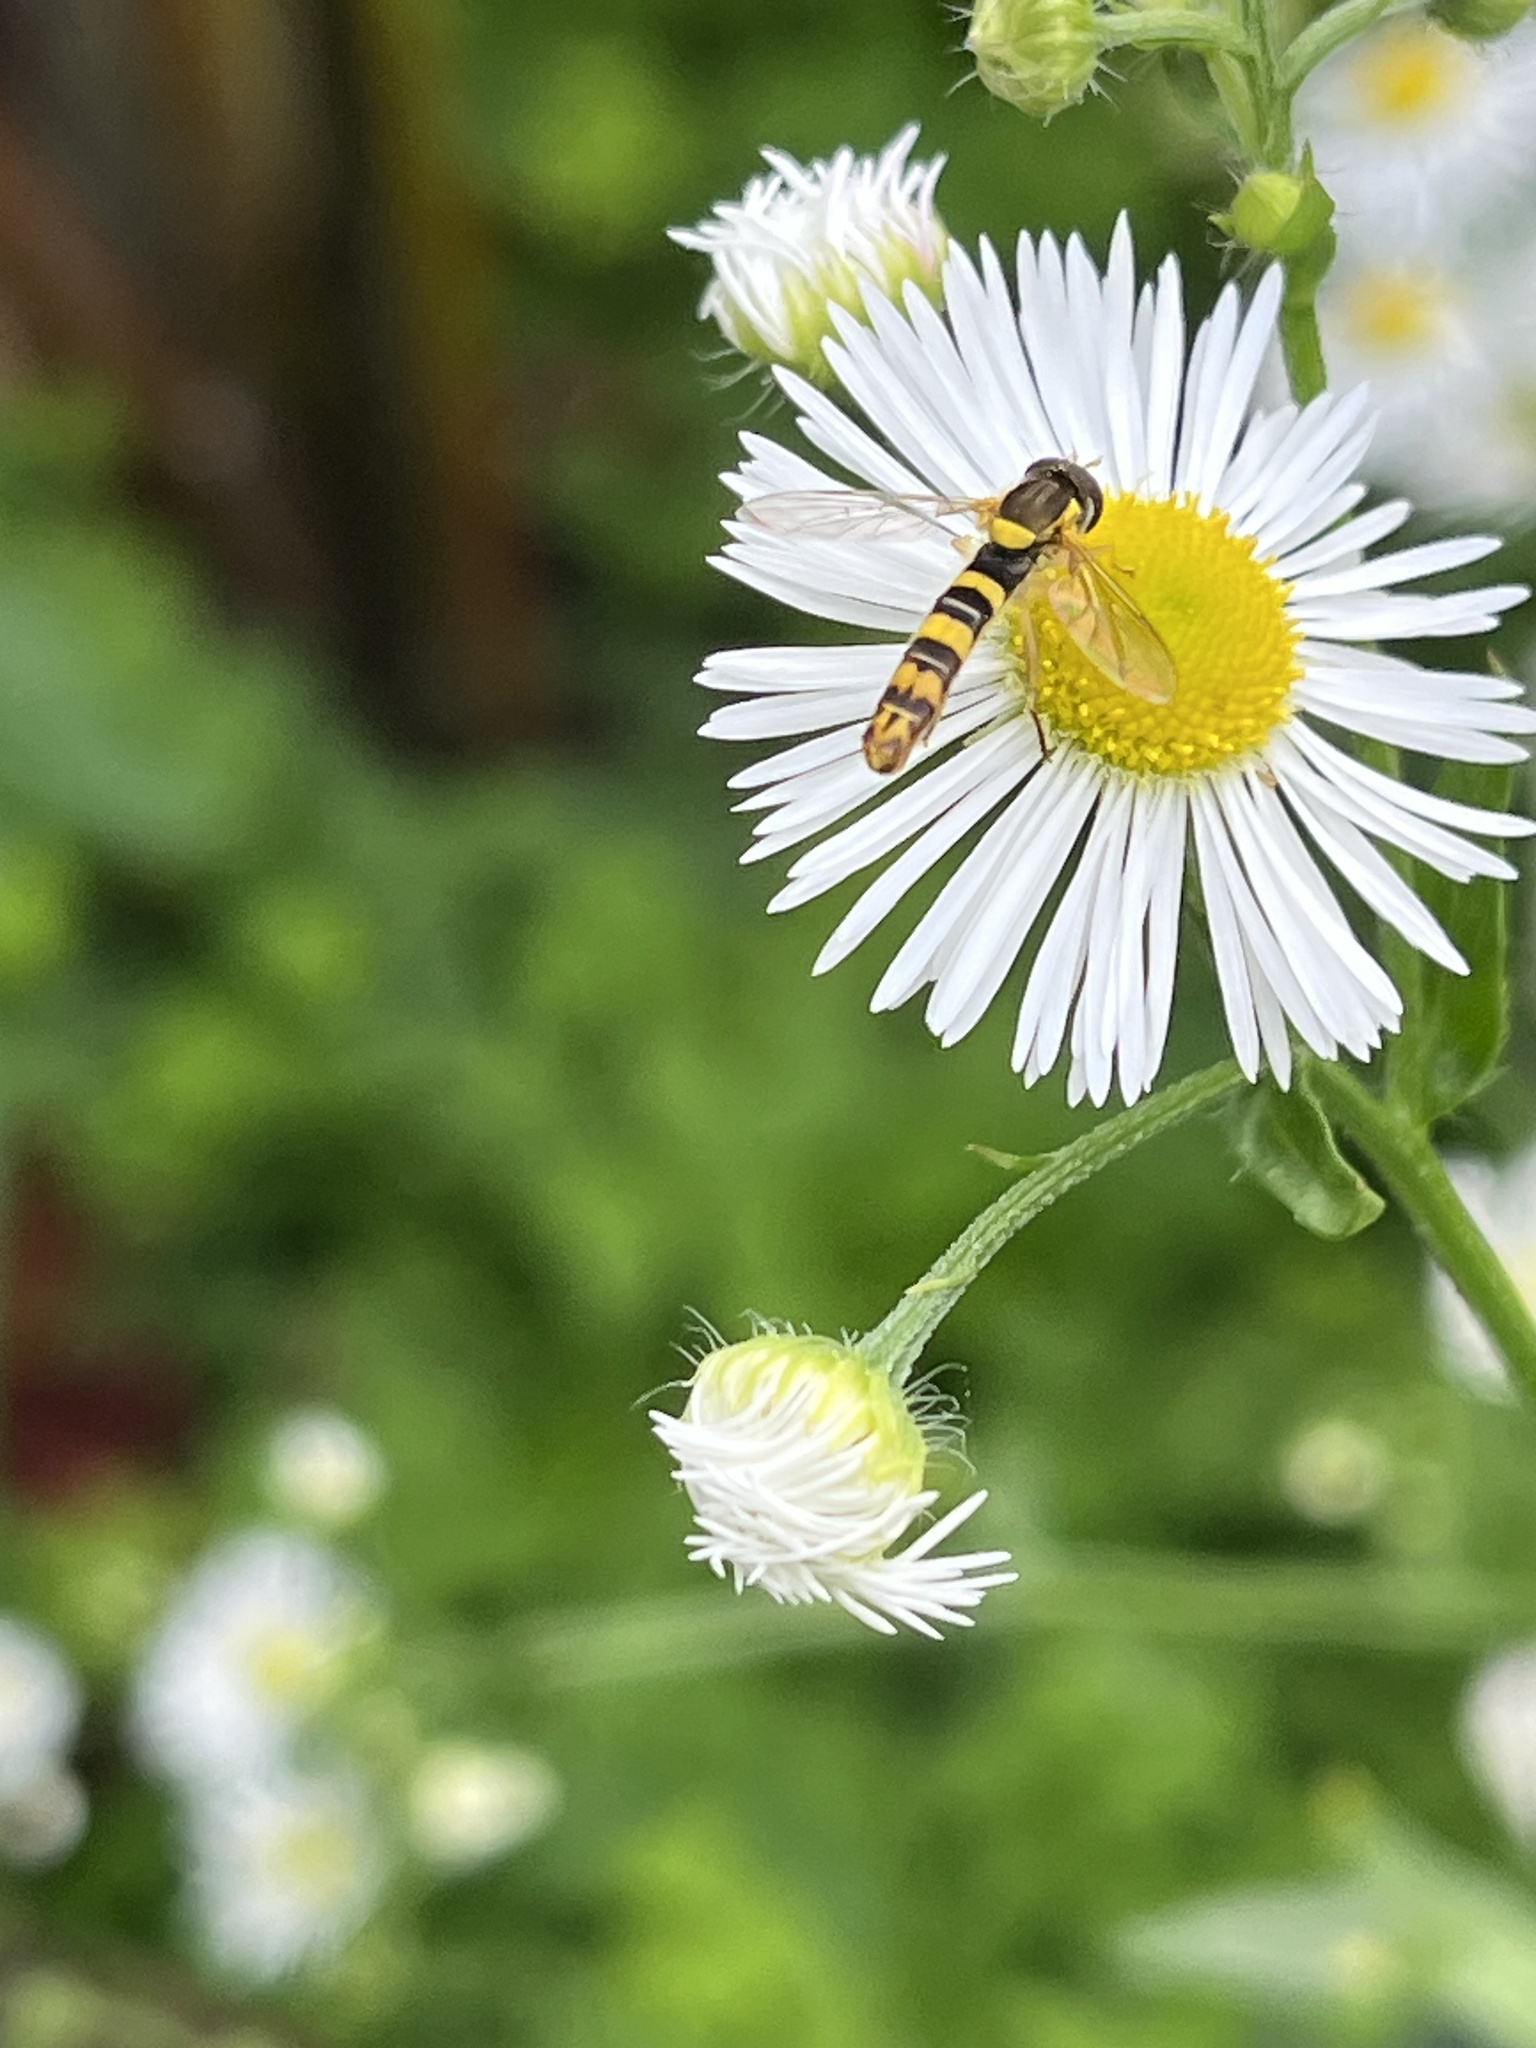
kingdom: Animalia
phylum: Arthropoda
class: Insecta
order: Diptera
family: Syrphidae
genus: Sphaerophoria
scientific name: Sphaerophoria scripta
